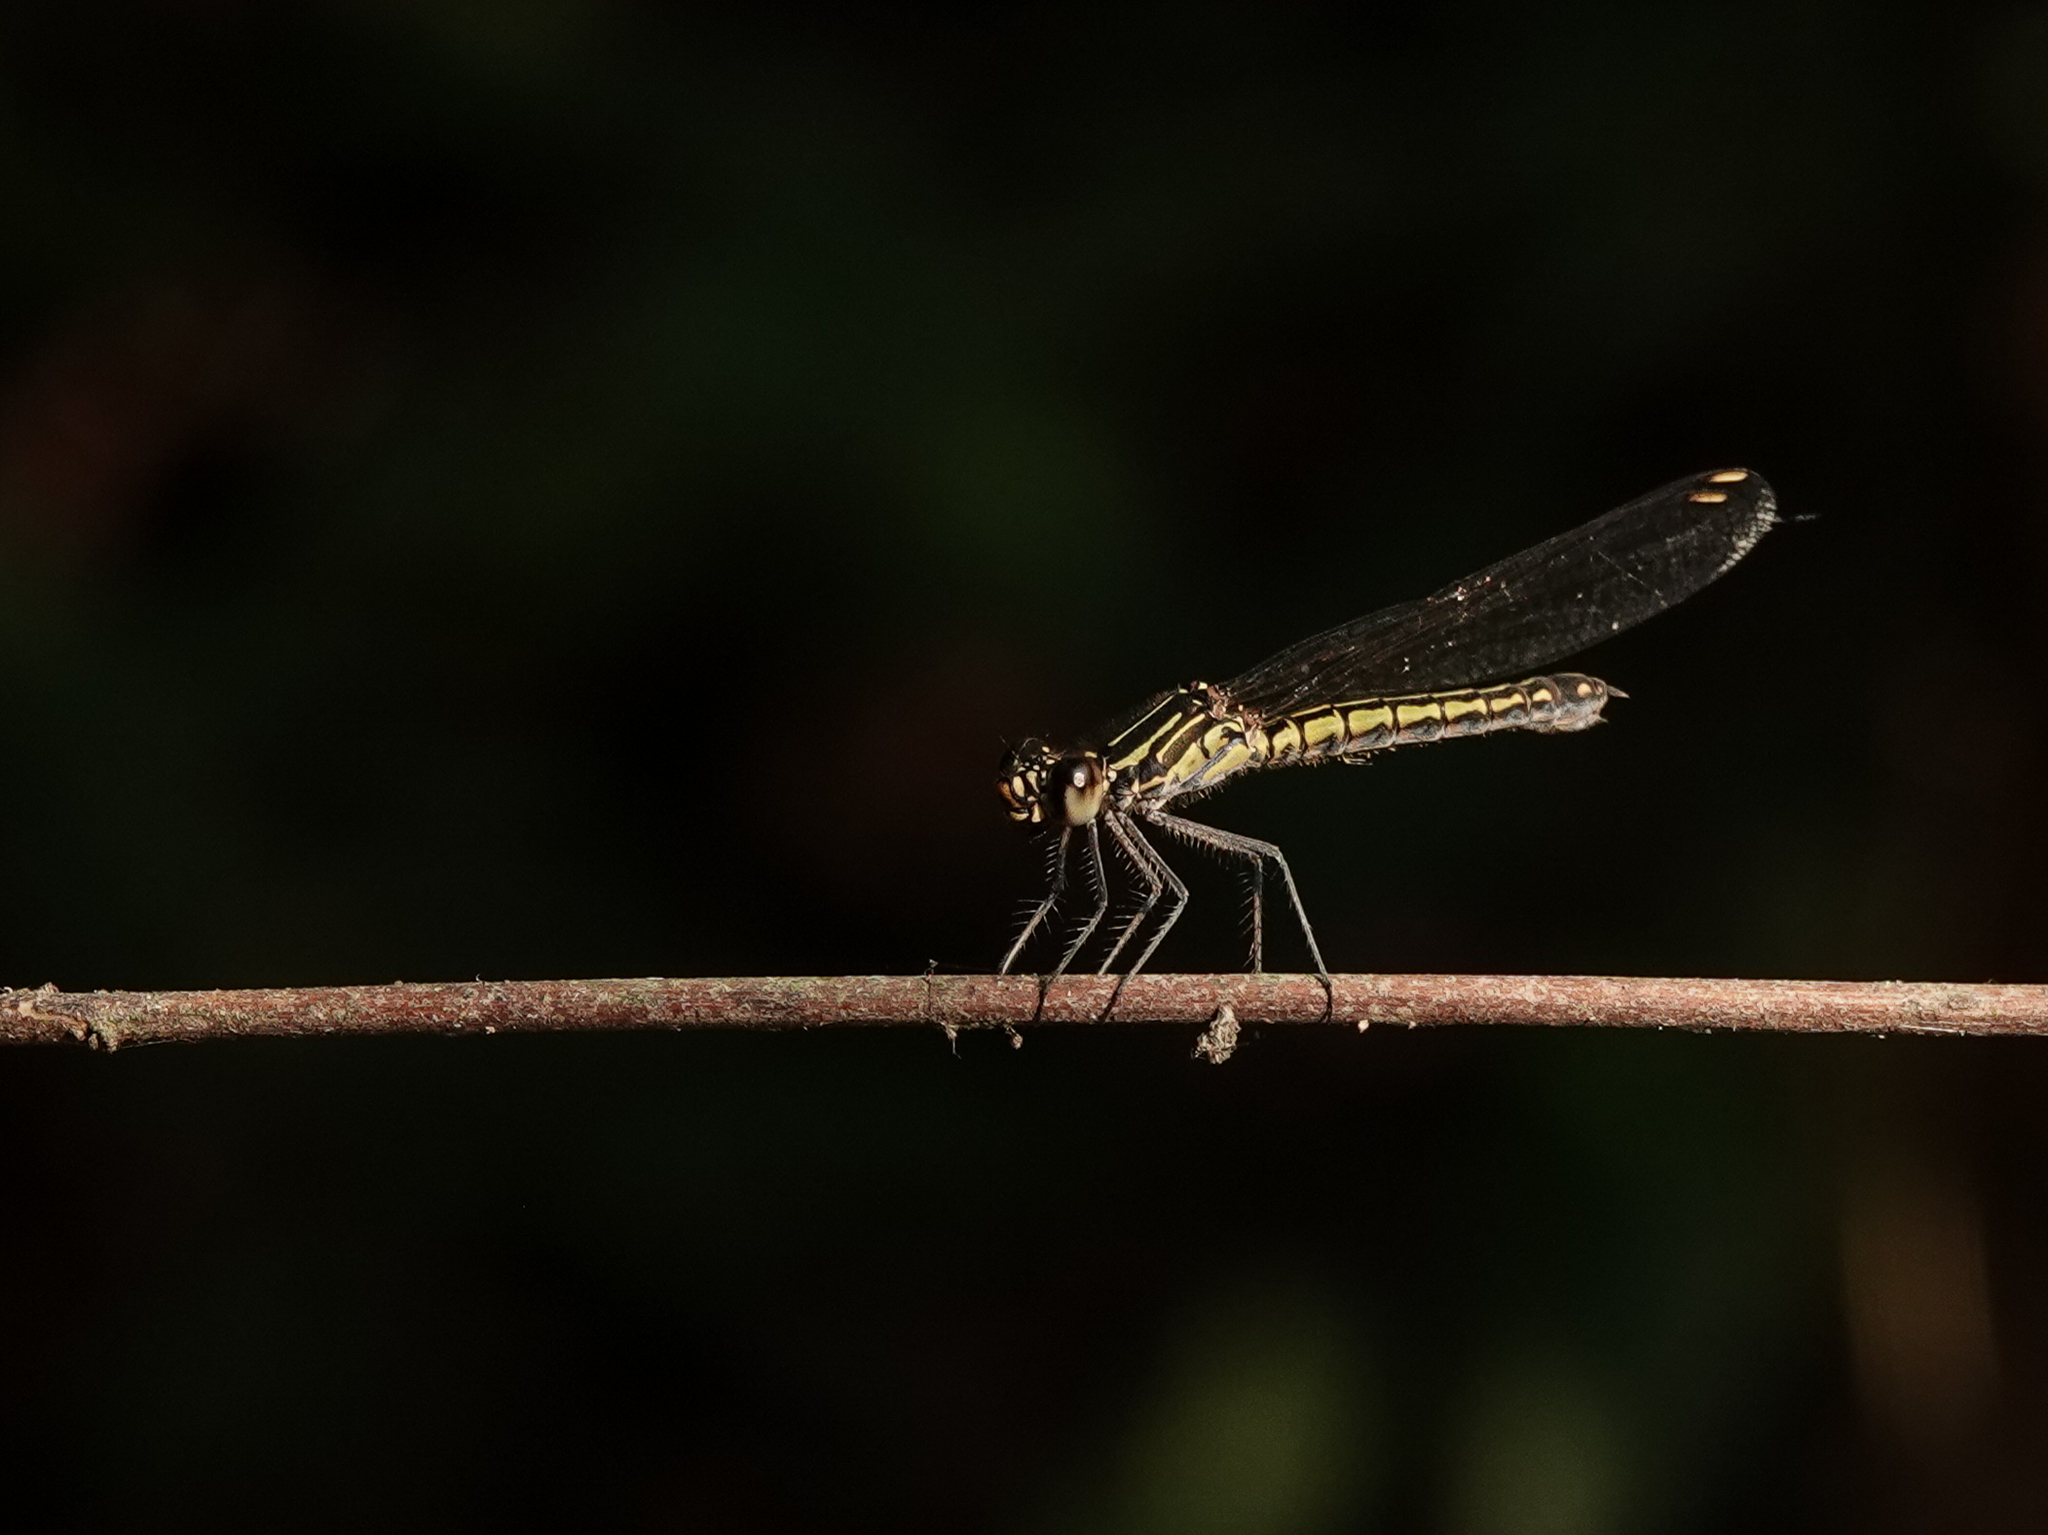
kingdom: Animalia
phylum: Arthropoda
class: Insecta
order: Odonata
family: Chlorocyphidae
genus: Libellago
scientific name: Libellago lineata
